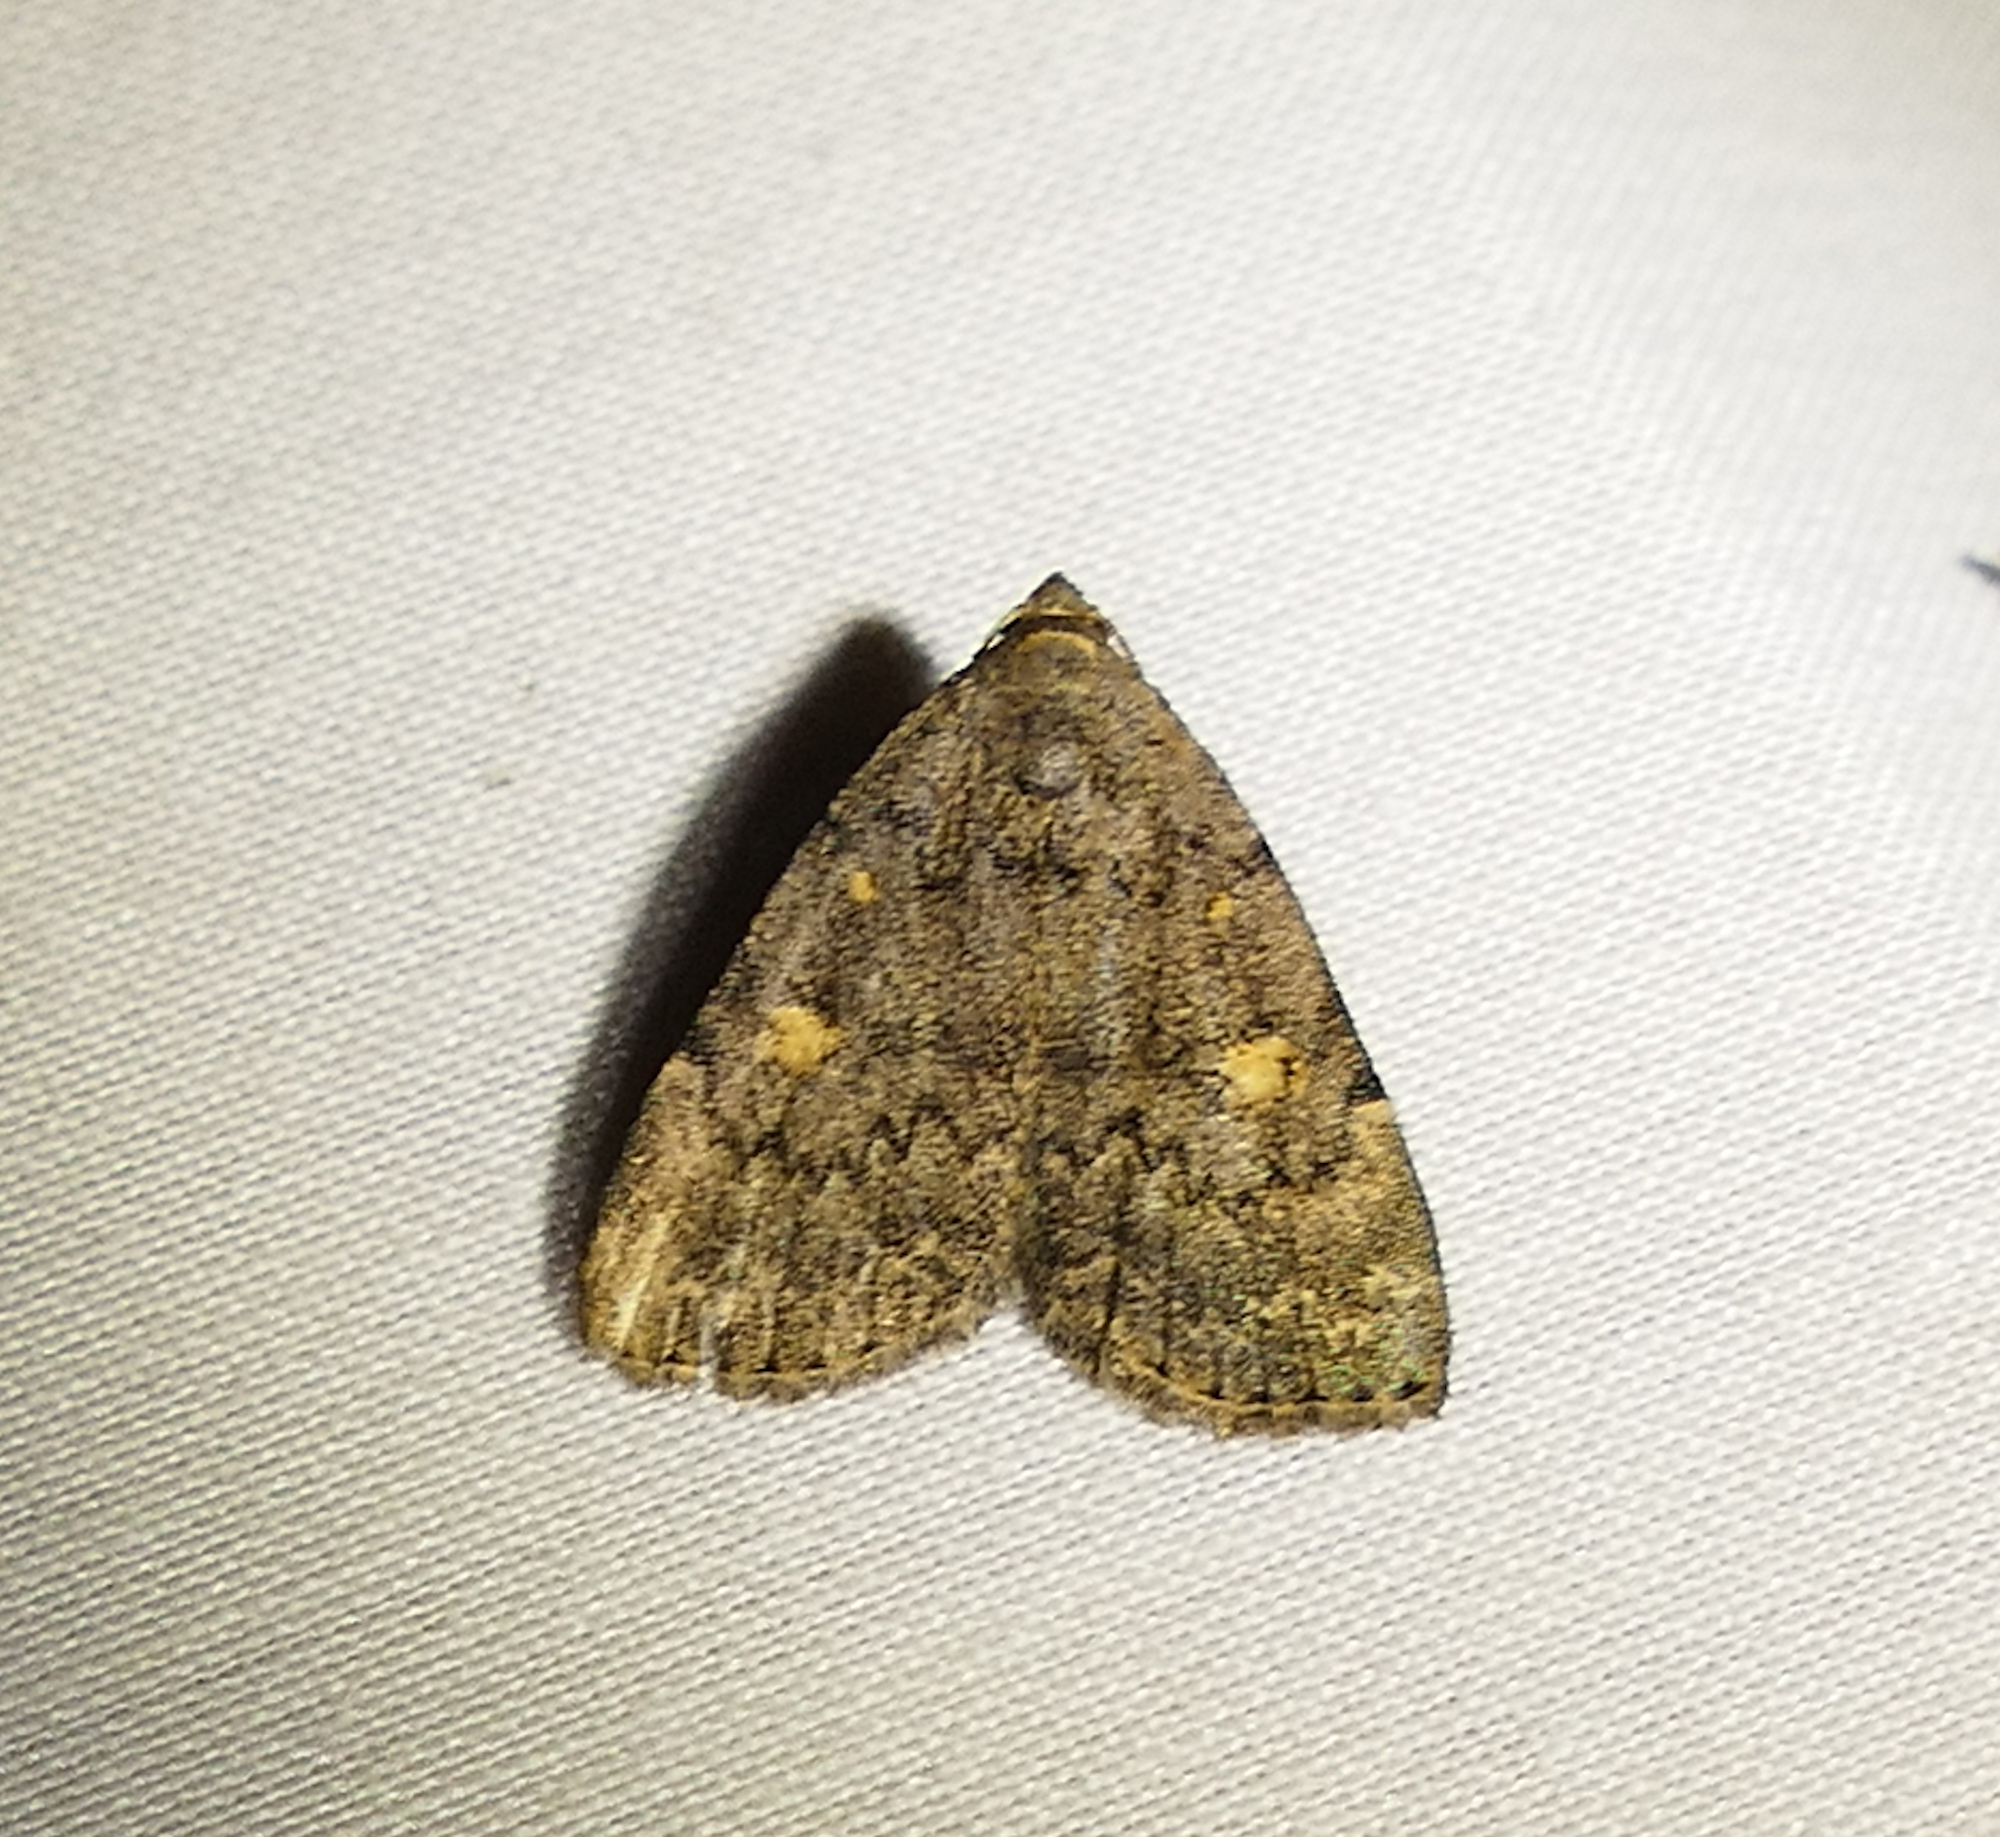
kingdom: Animalia
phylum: Arthropoda
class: Insecta
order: Lepidoptera
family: Erebidae
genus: Idia
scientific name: Idia aemula
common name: Common idia moth
